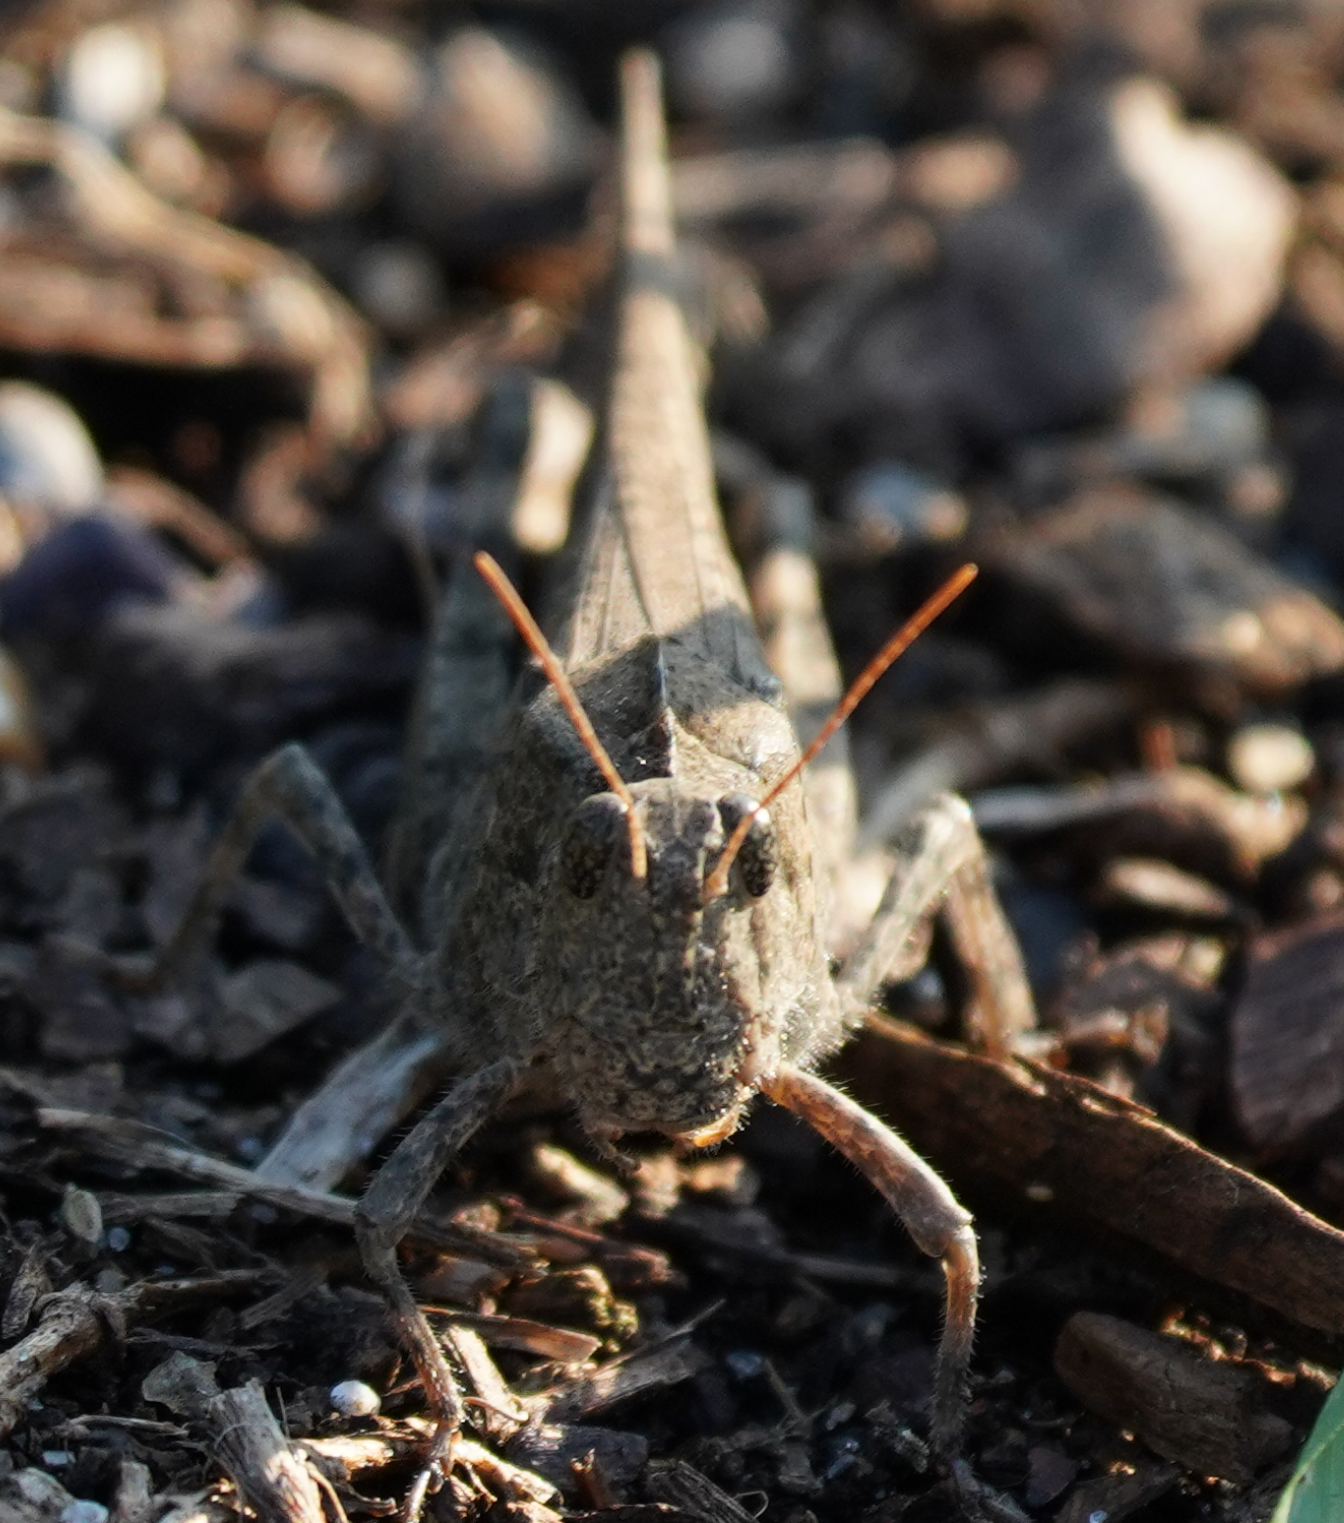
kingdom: Animalia
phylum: Arthropoda
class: Insecta
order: Orthoptera
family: Acrididae
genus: Dissosteira
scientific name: Dissosteira carolina
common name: Carolina grasshopper
